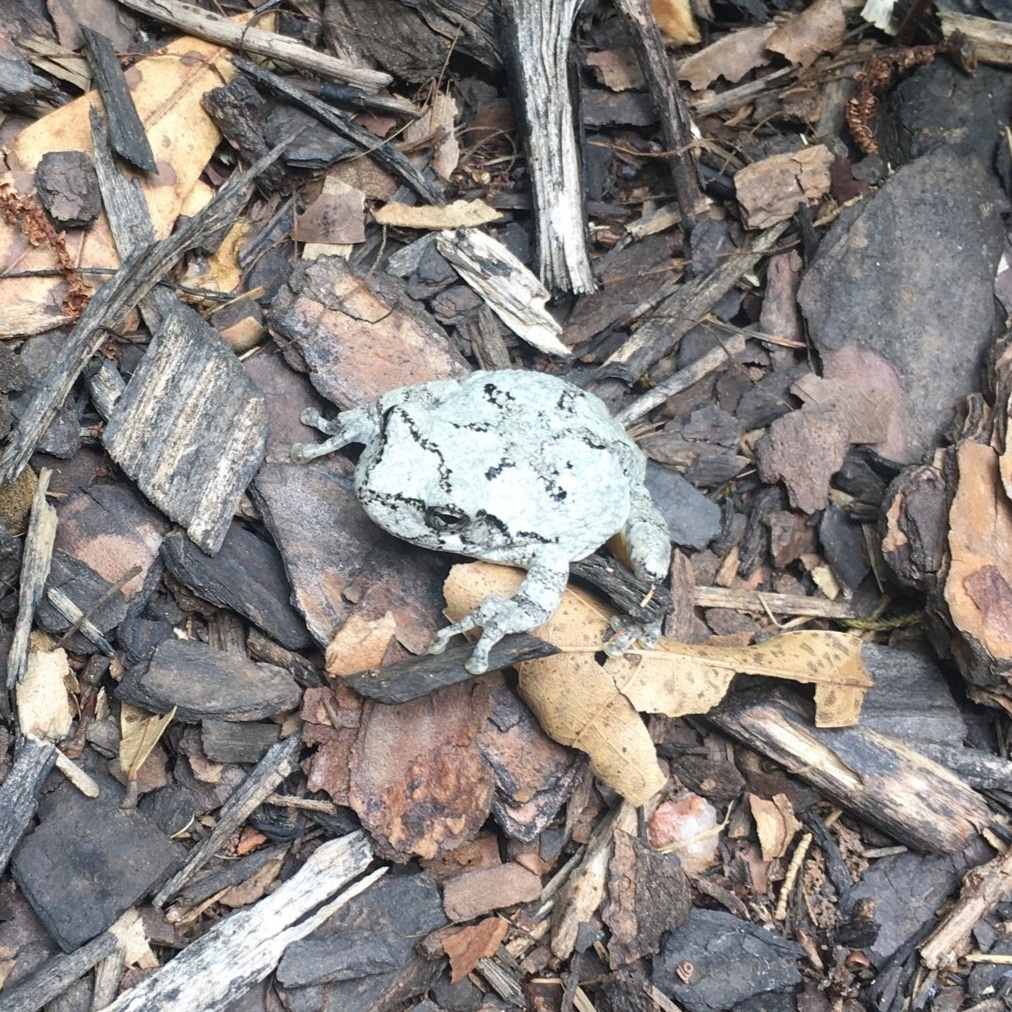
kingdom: Animalia
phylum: Chordata
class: Amphibia
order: Anura
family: Hylidae
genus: Dryophytes
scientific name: Dryophytes chrysoscelis
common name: Cope's gray treefrog
